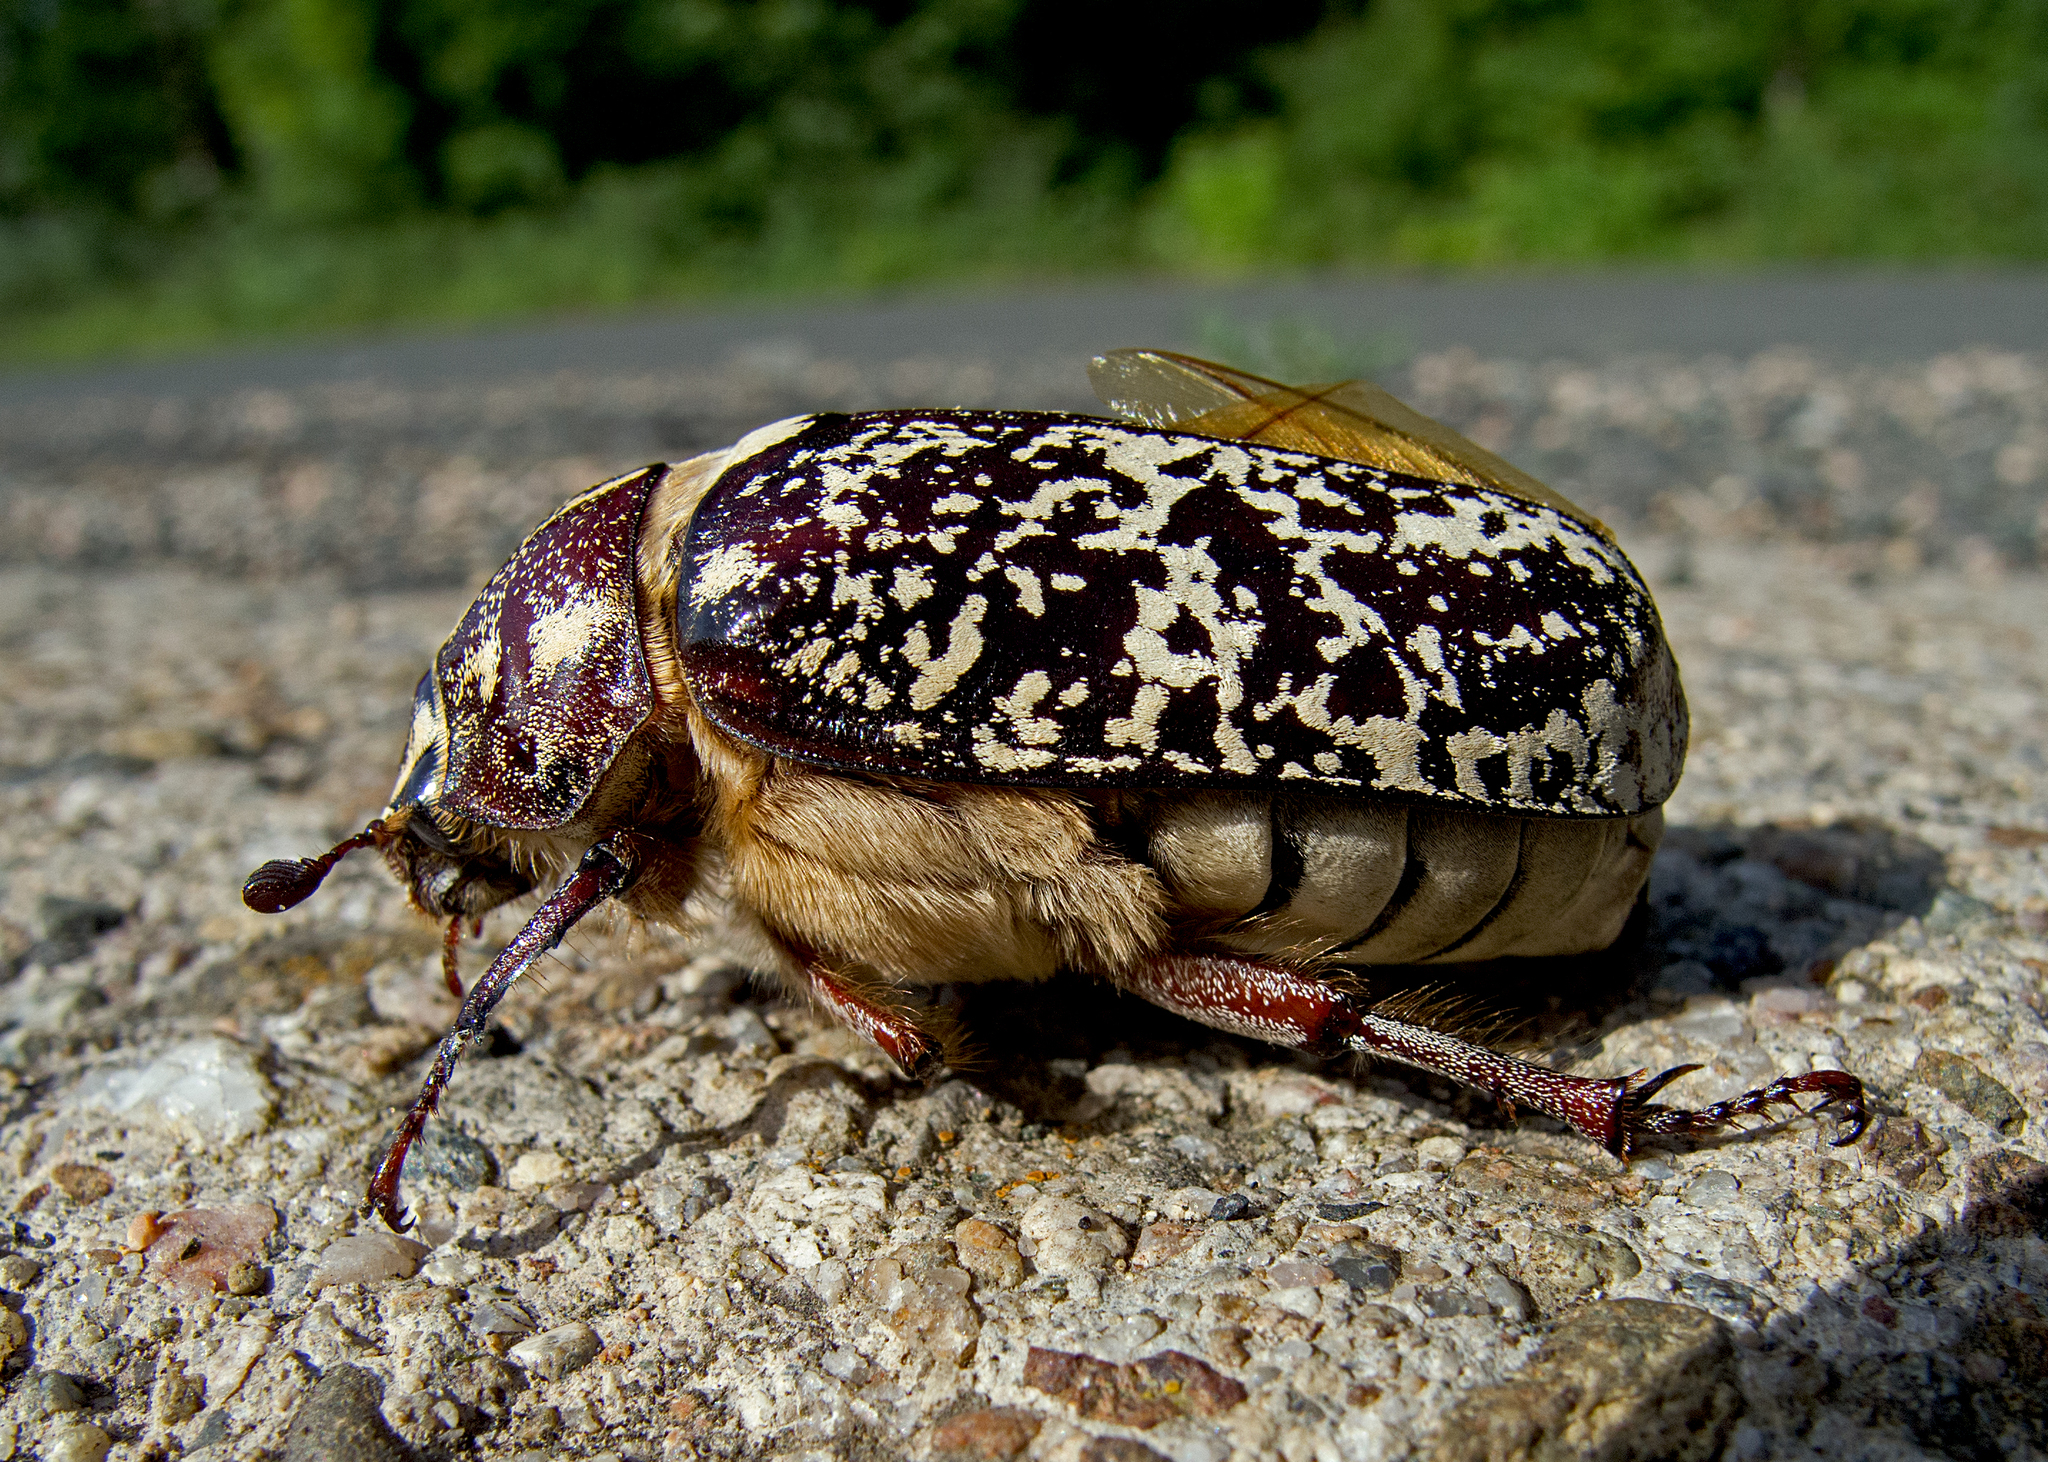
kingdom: Animalia
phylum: Arthropoda
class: Insecta
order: Coleoptera
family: Scarabaeidae
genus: Polyphylla
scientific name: Polyphylla fullo
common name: Pine chafer
